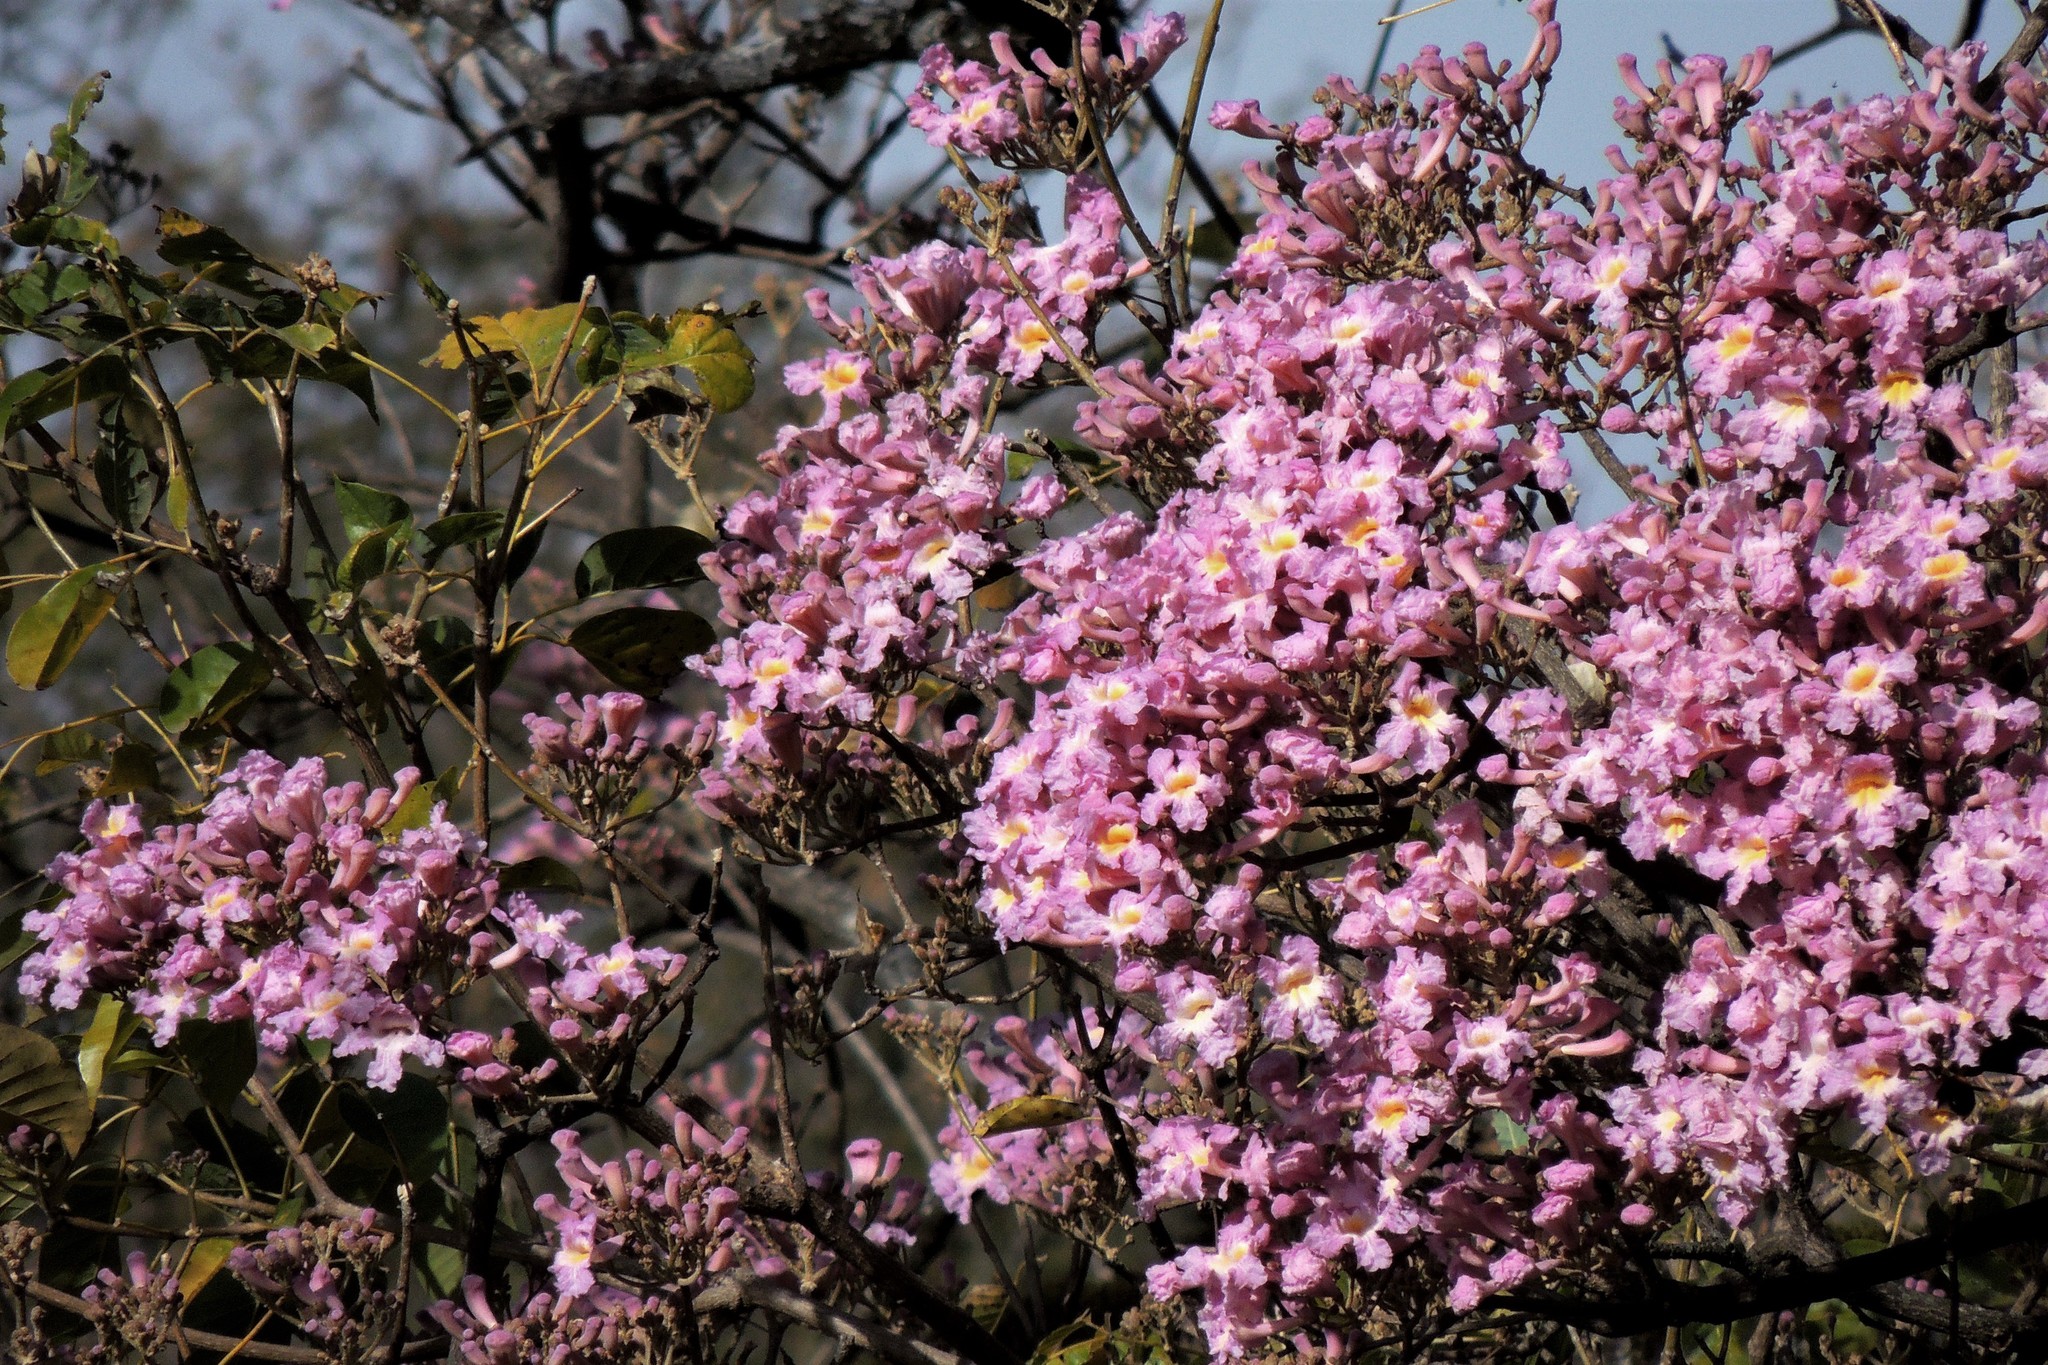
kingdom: Plantae
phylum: Tracheophyta
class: Magnoliopsida
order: Lamiales
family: Bignoniaceae
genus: Handroanthus
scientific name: Handroanthus impetiginosum
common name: Pink trumpet tree
